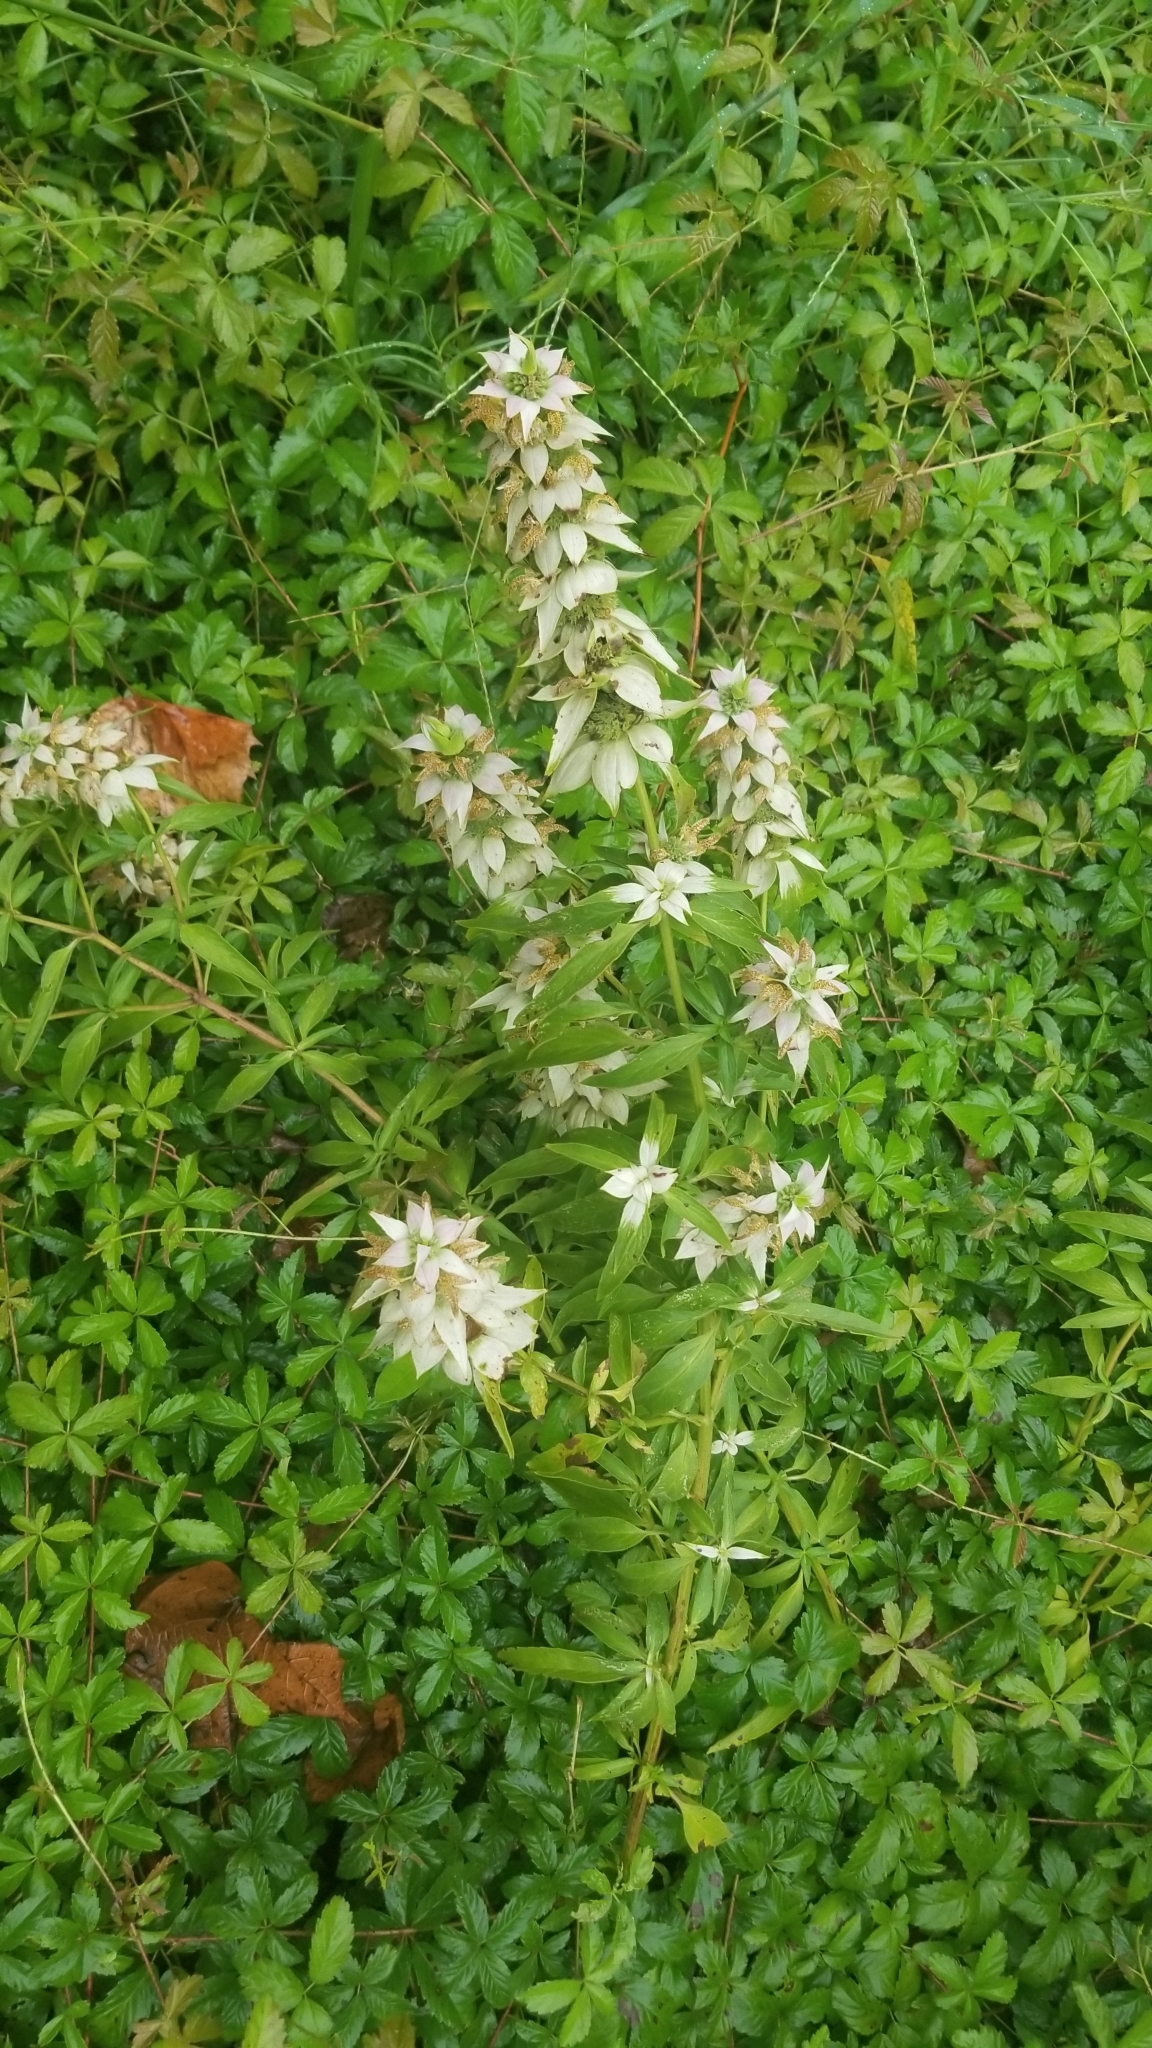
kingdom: Plantae
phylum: Tracheophyta
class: Magnoliopsida
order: Lamiales
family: Lamiaceae
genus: Monarda
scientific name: Monarda punctata
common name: Dotted monarda
